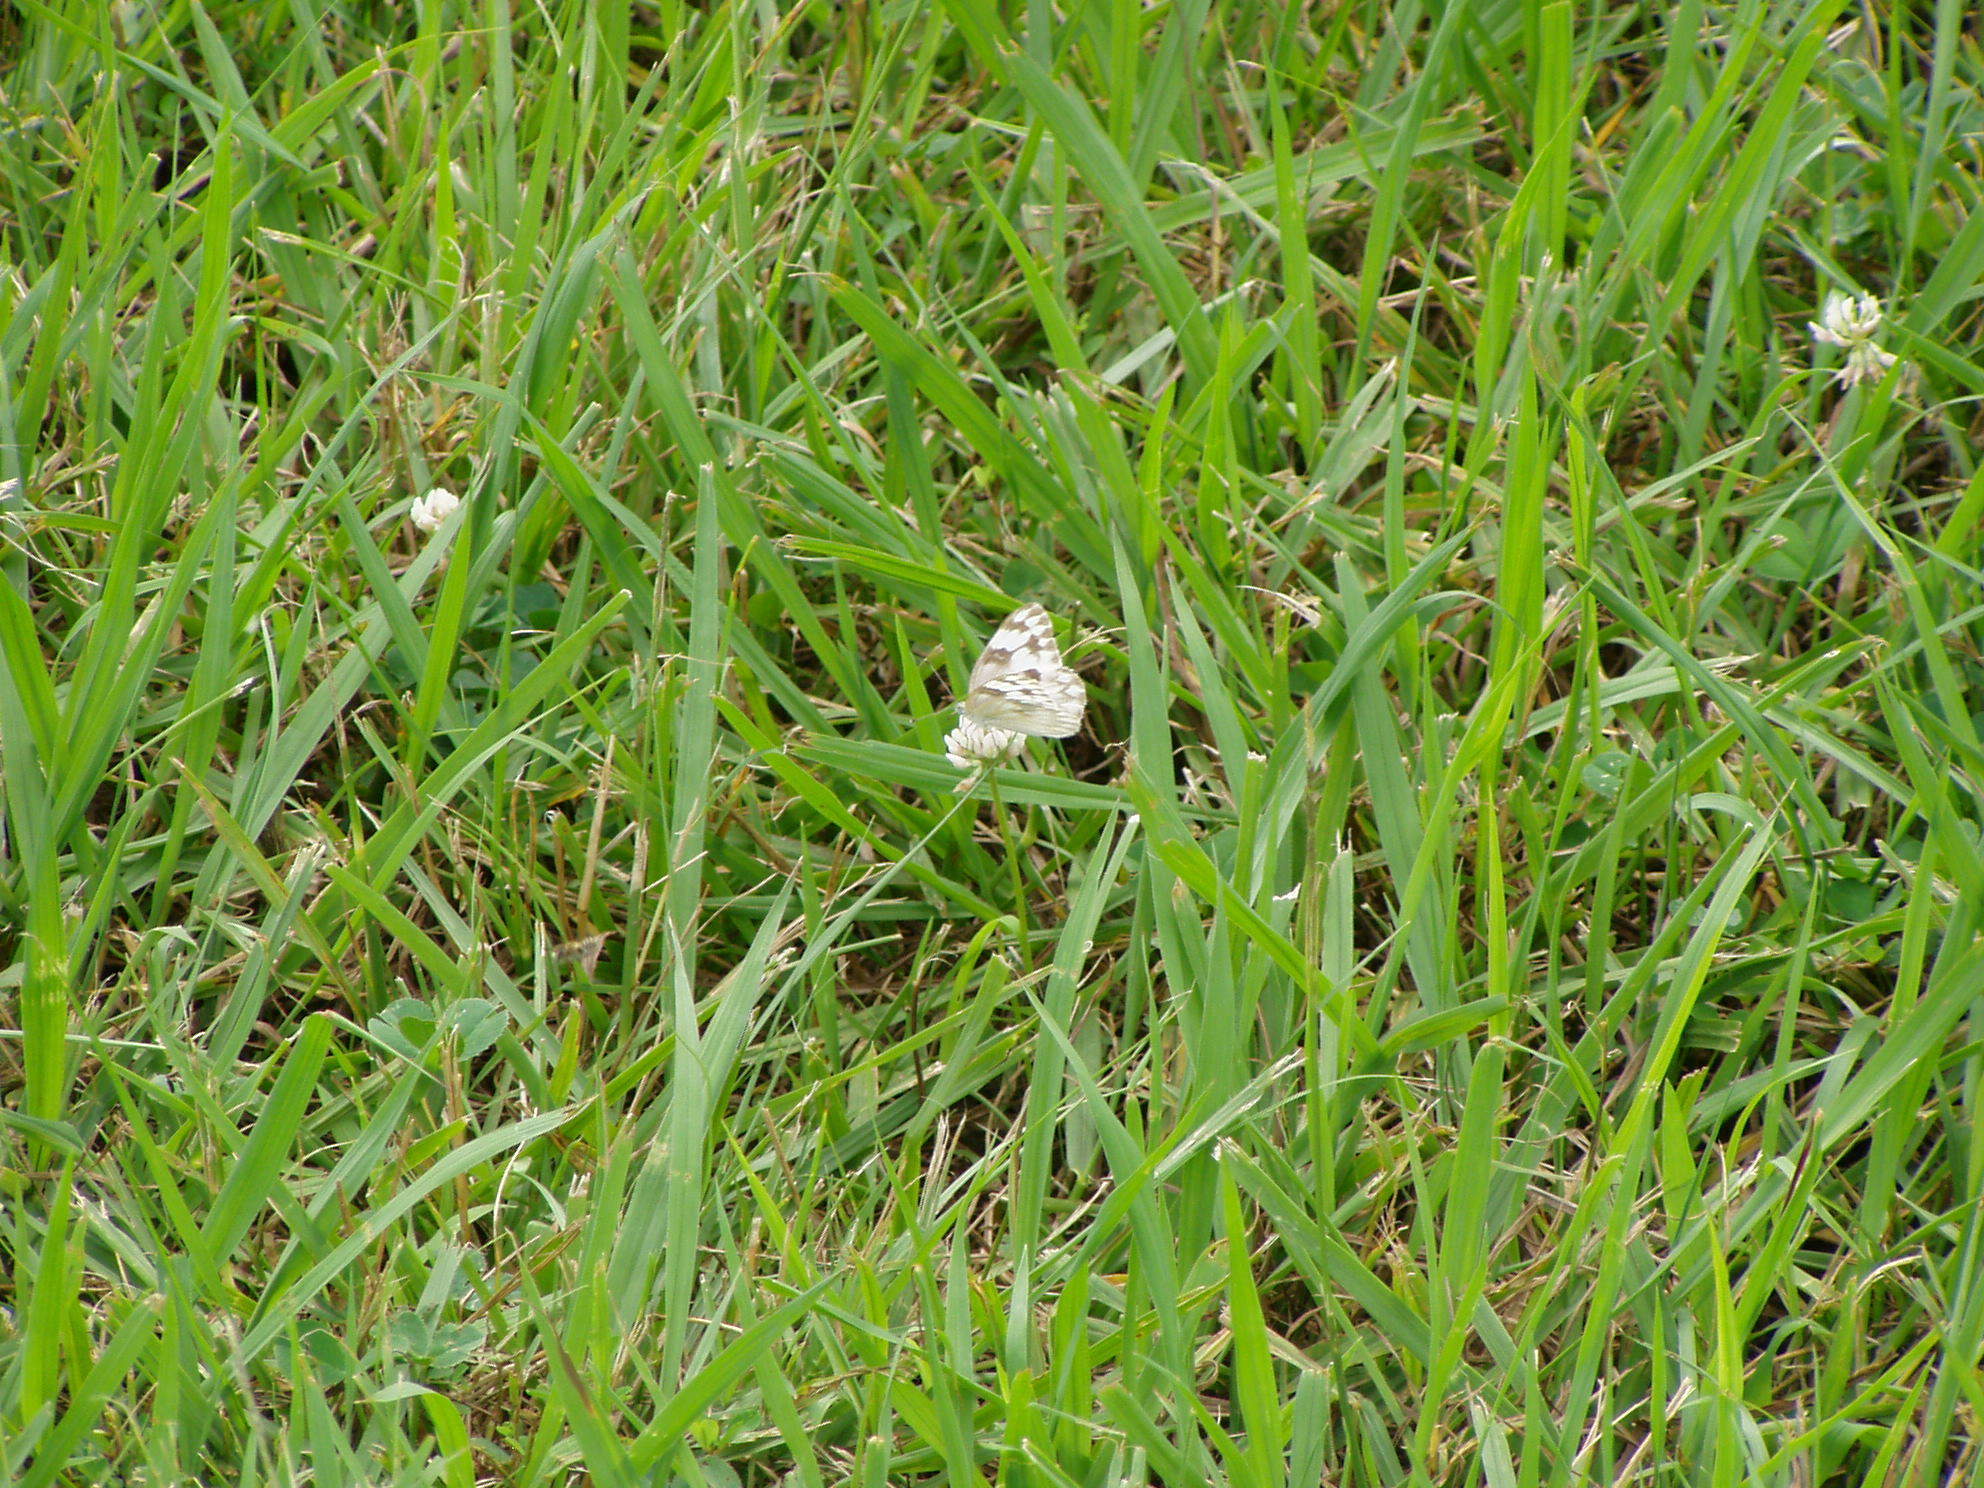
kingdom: Animalia
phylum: Arthropoda
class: Insecta
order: Lepidoptera
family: Pieridae
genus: Pontia
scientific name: Pontia protodice
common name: Checkered white
